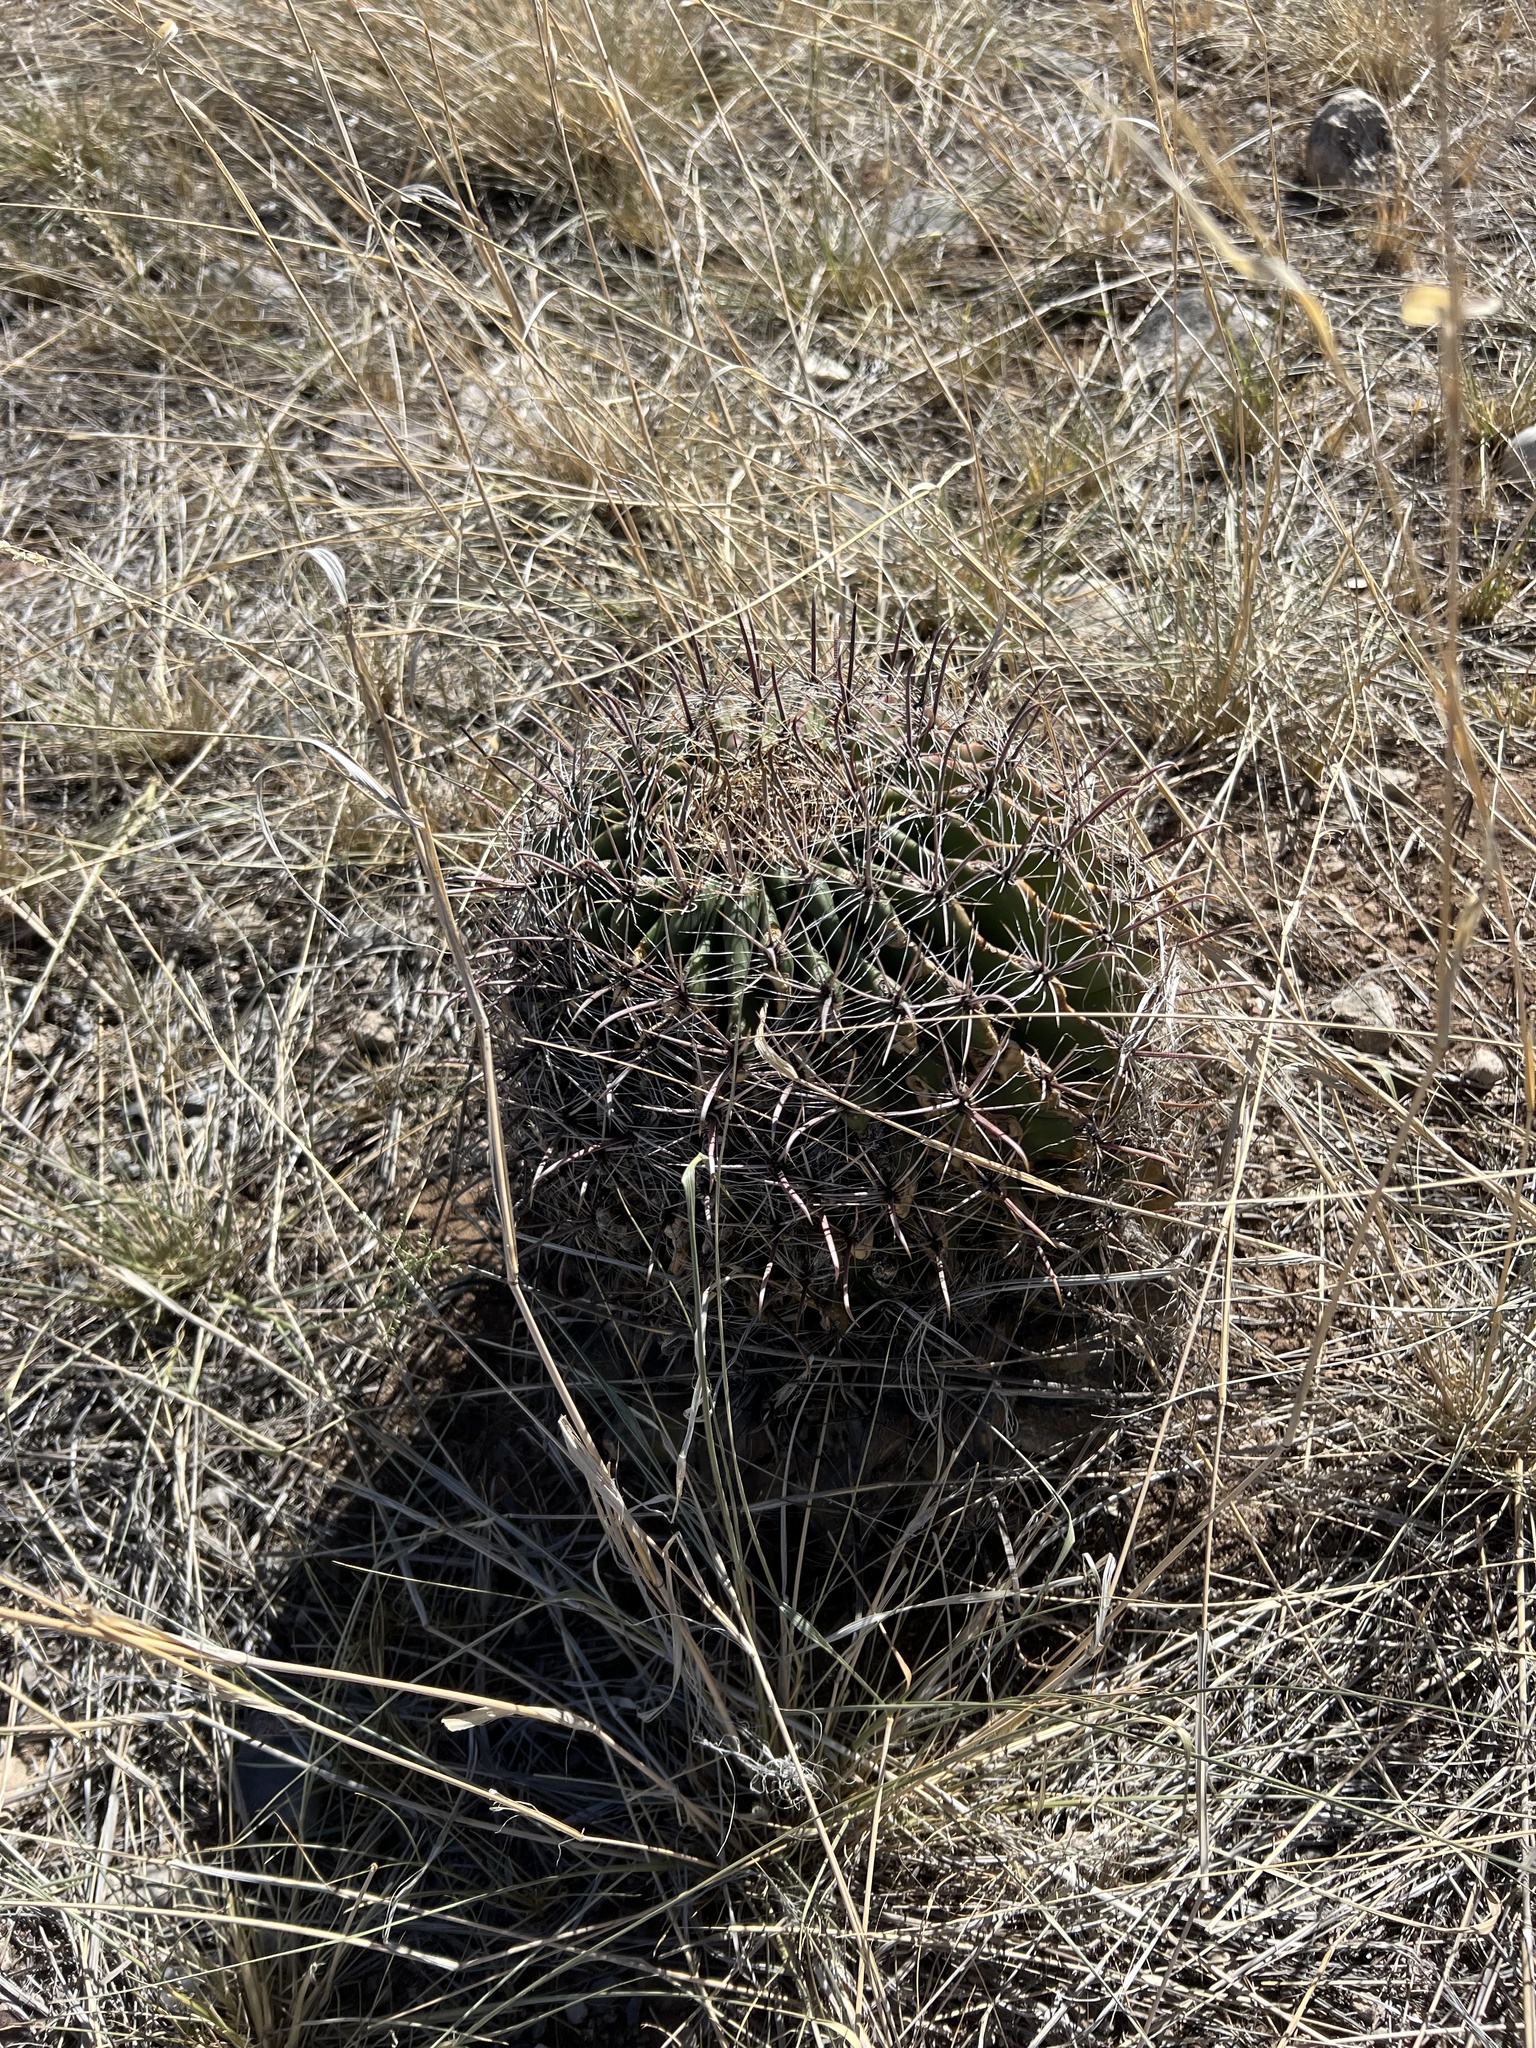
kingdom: Plantae
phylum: Tracheophyta
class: Magnoliopsida
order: Caryophyllales
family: Cactaceae
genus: Ferocactus
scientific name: Ferocactus wislizeni
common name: Candy barrel cactus
